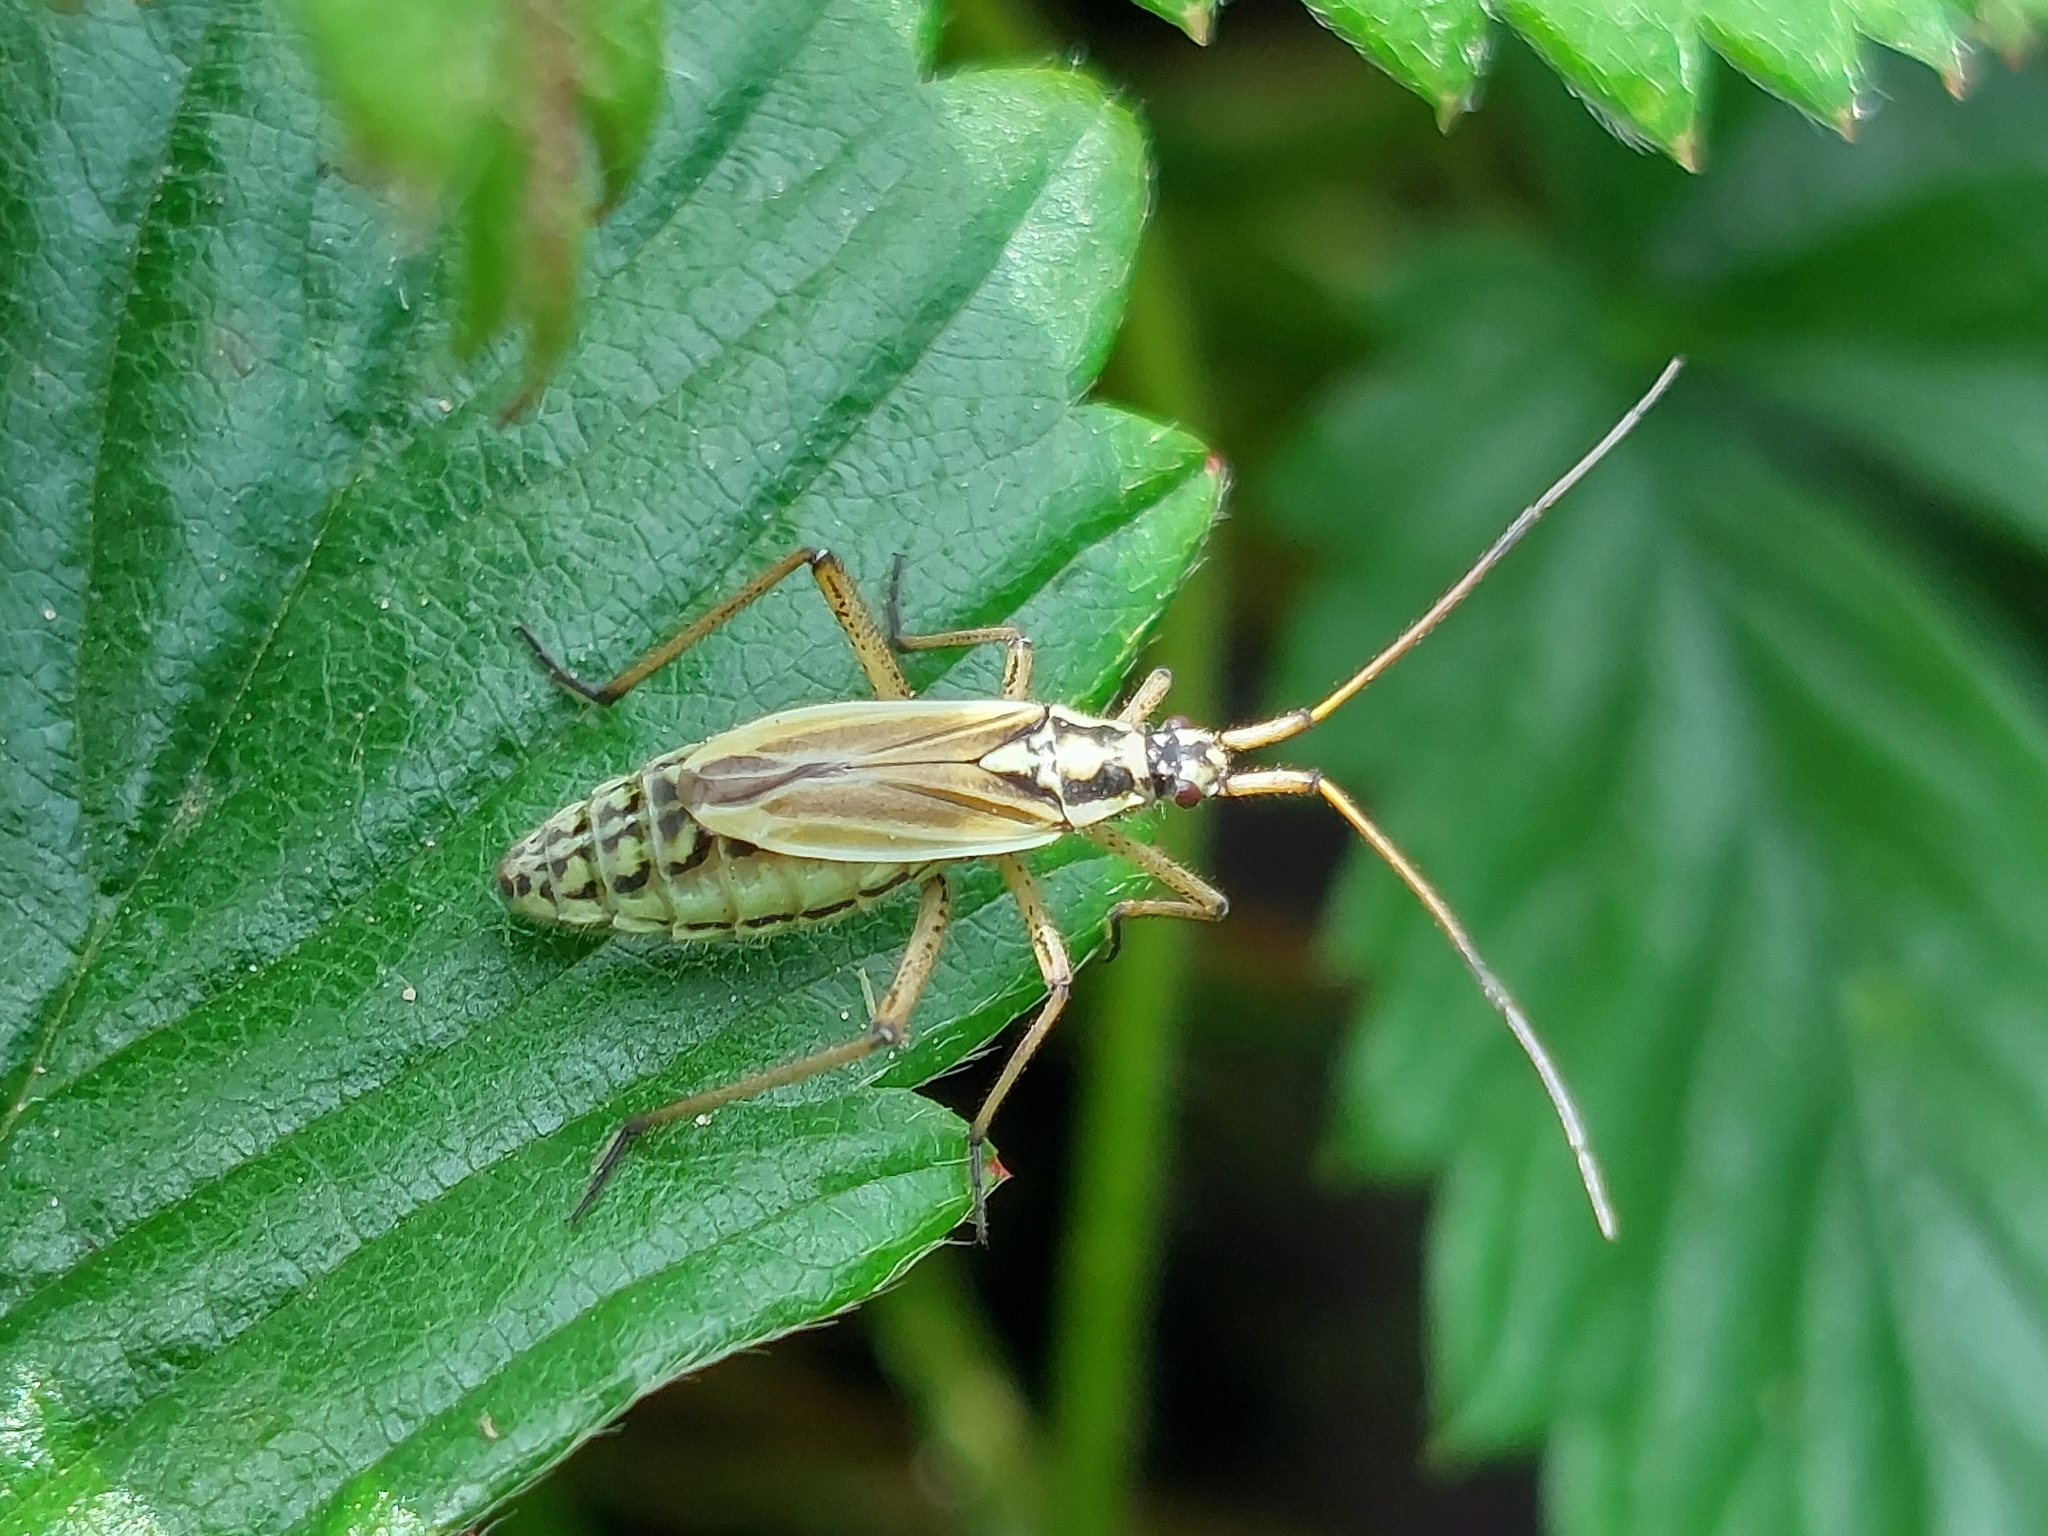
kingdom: Animalia
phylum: Arthropoda
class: Insecta
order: Hemiptera
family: Miridae
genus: Leptopterna
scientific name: Leptopterna dolabrata
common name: Meadow plant bug
